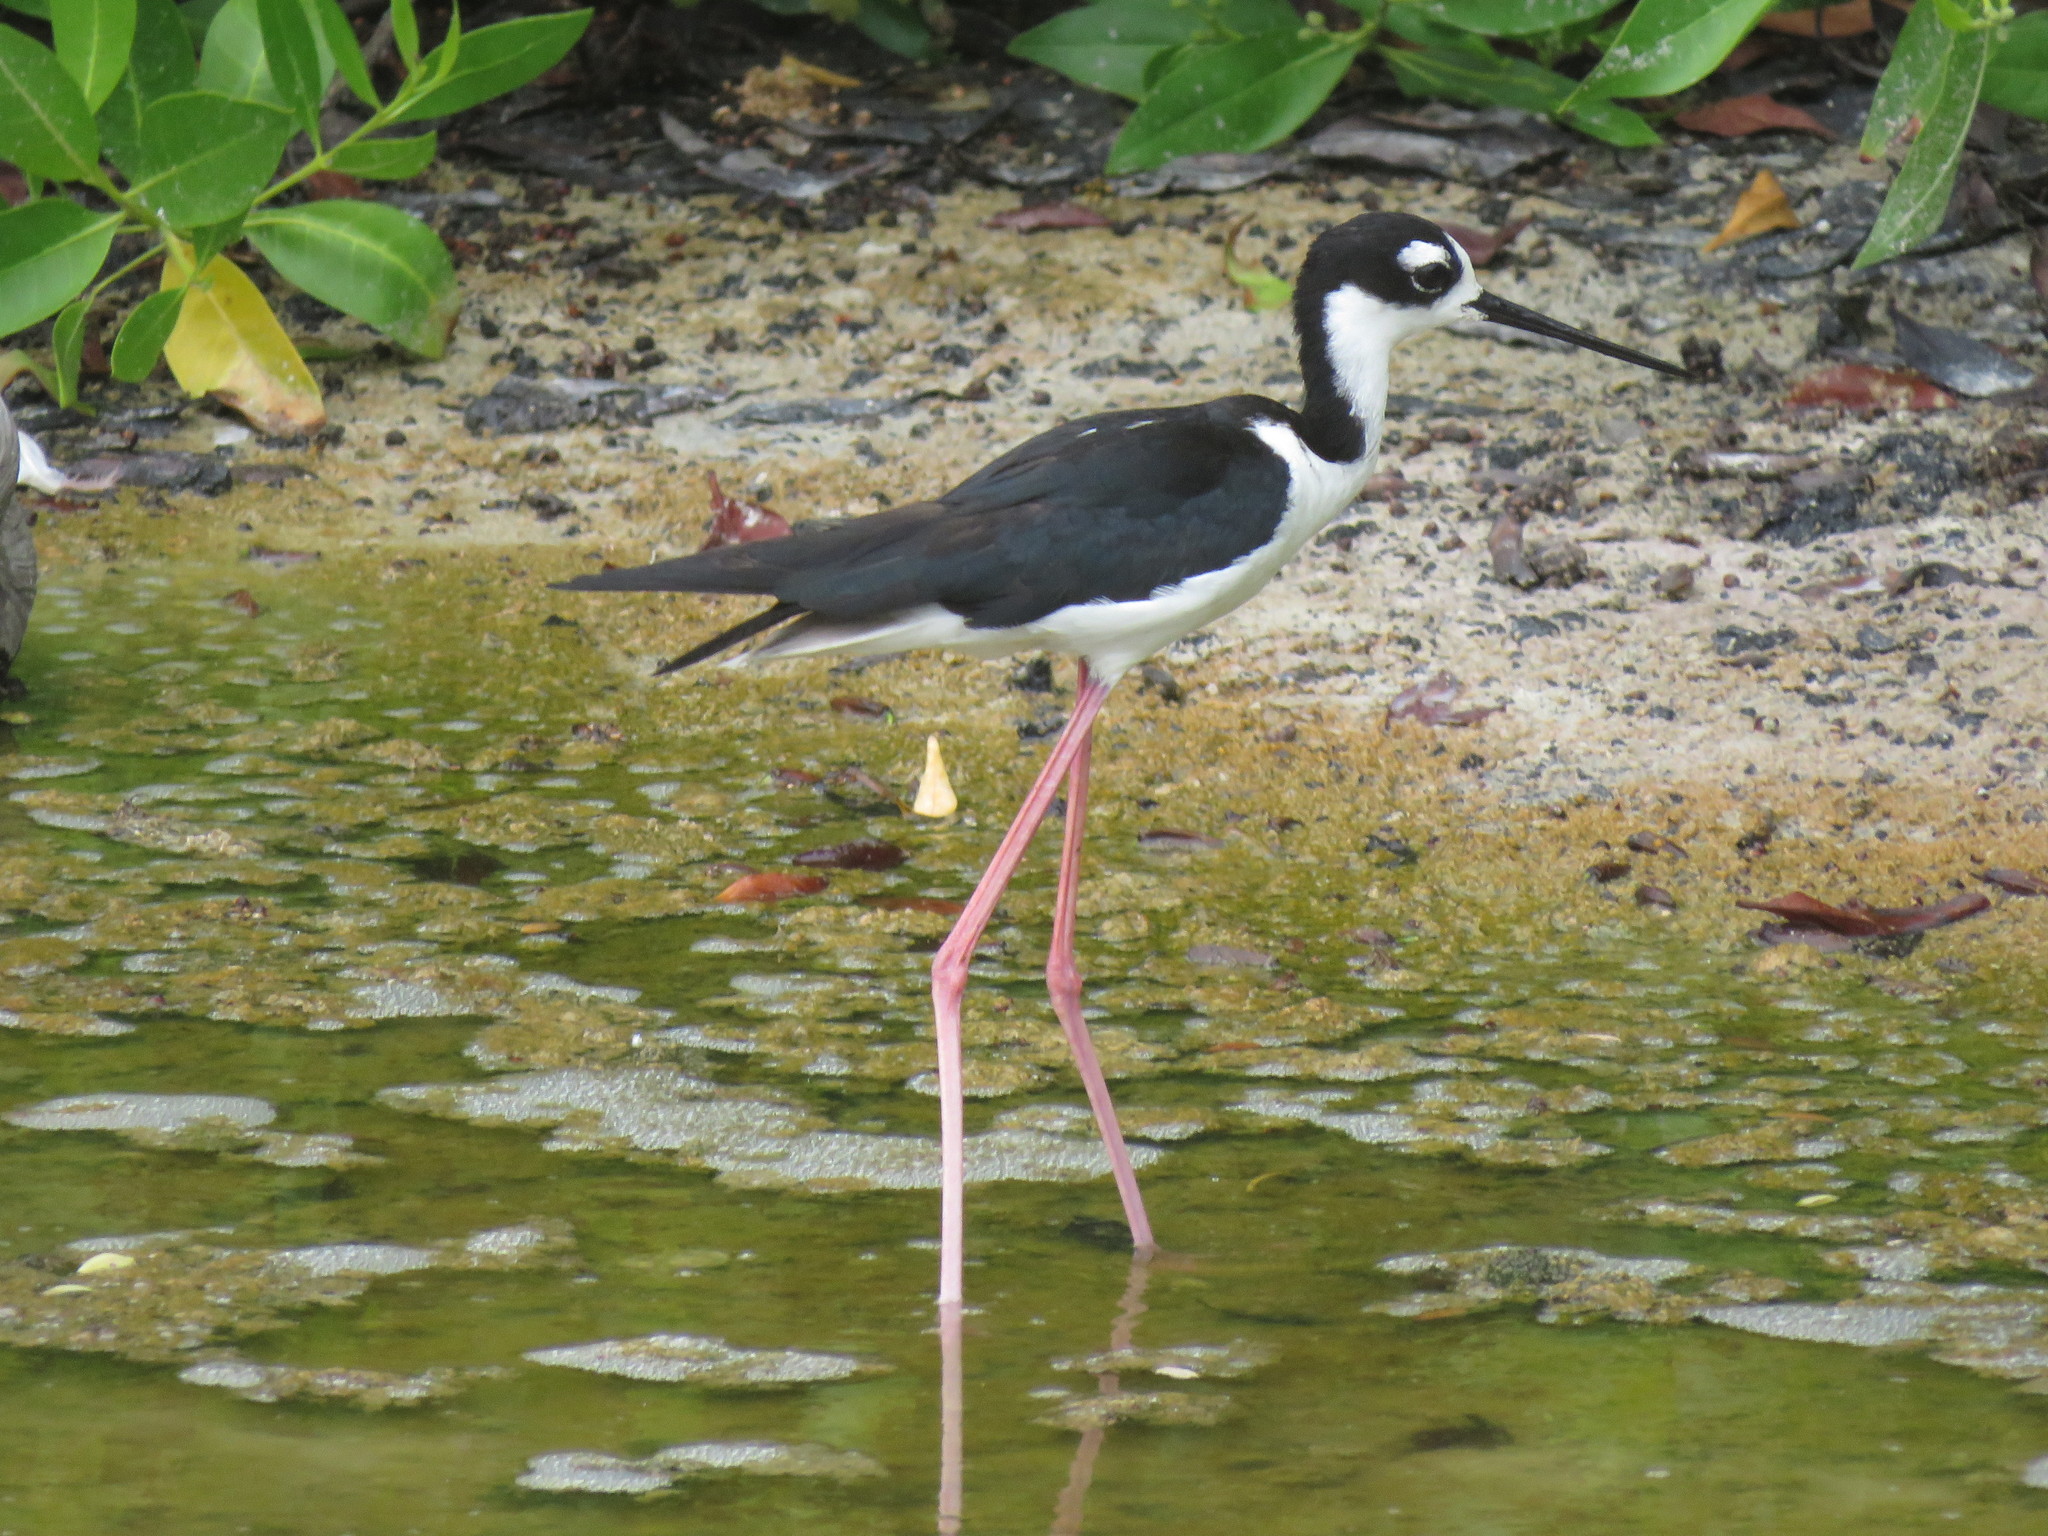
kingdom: Animalia
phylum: Chordata
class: Aves
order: Charadriiformes
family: Recurvirostridae
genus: Himantopus
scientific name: Himantopus mexicanus
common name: Black-necked stilt
